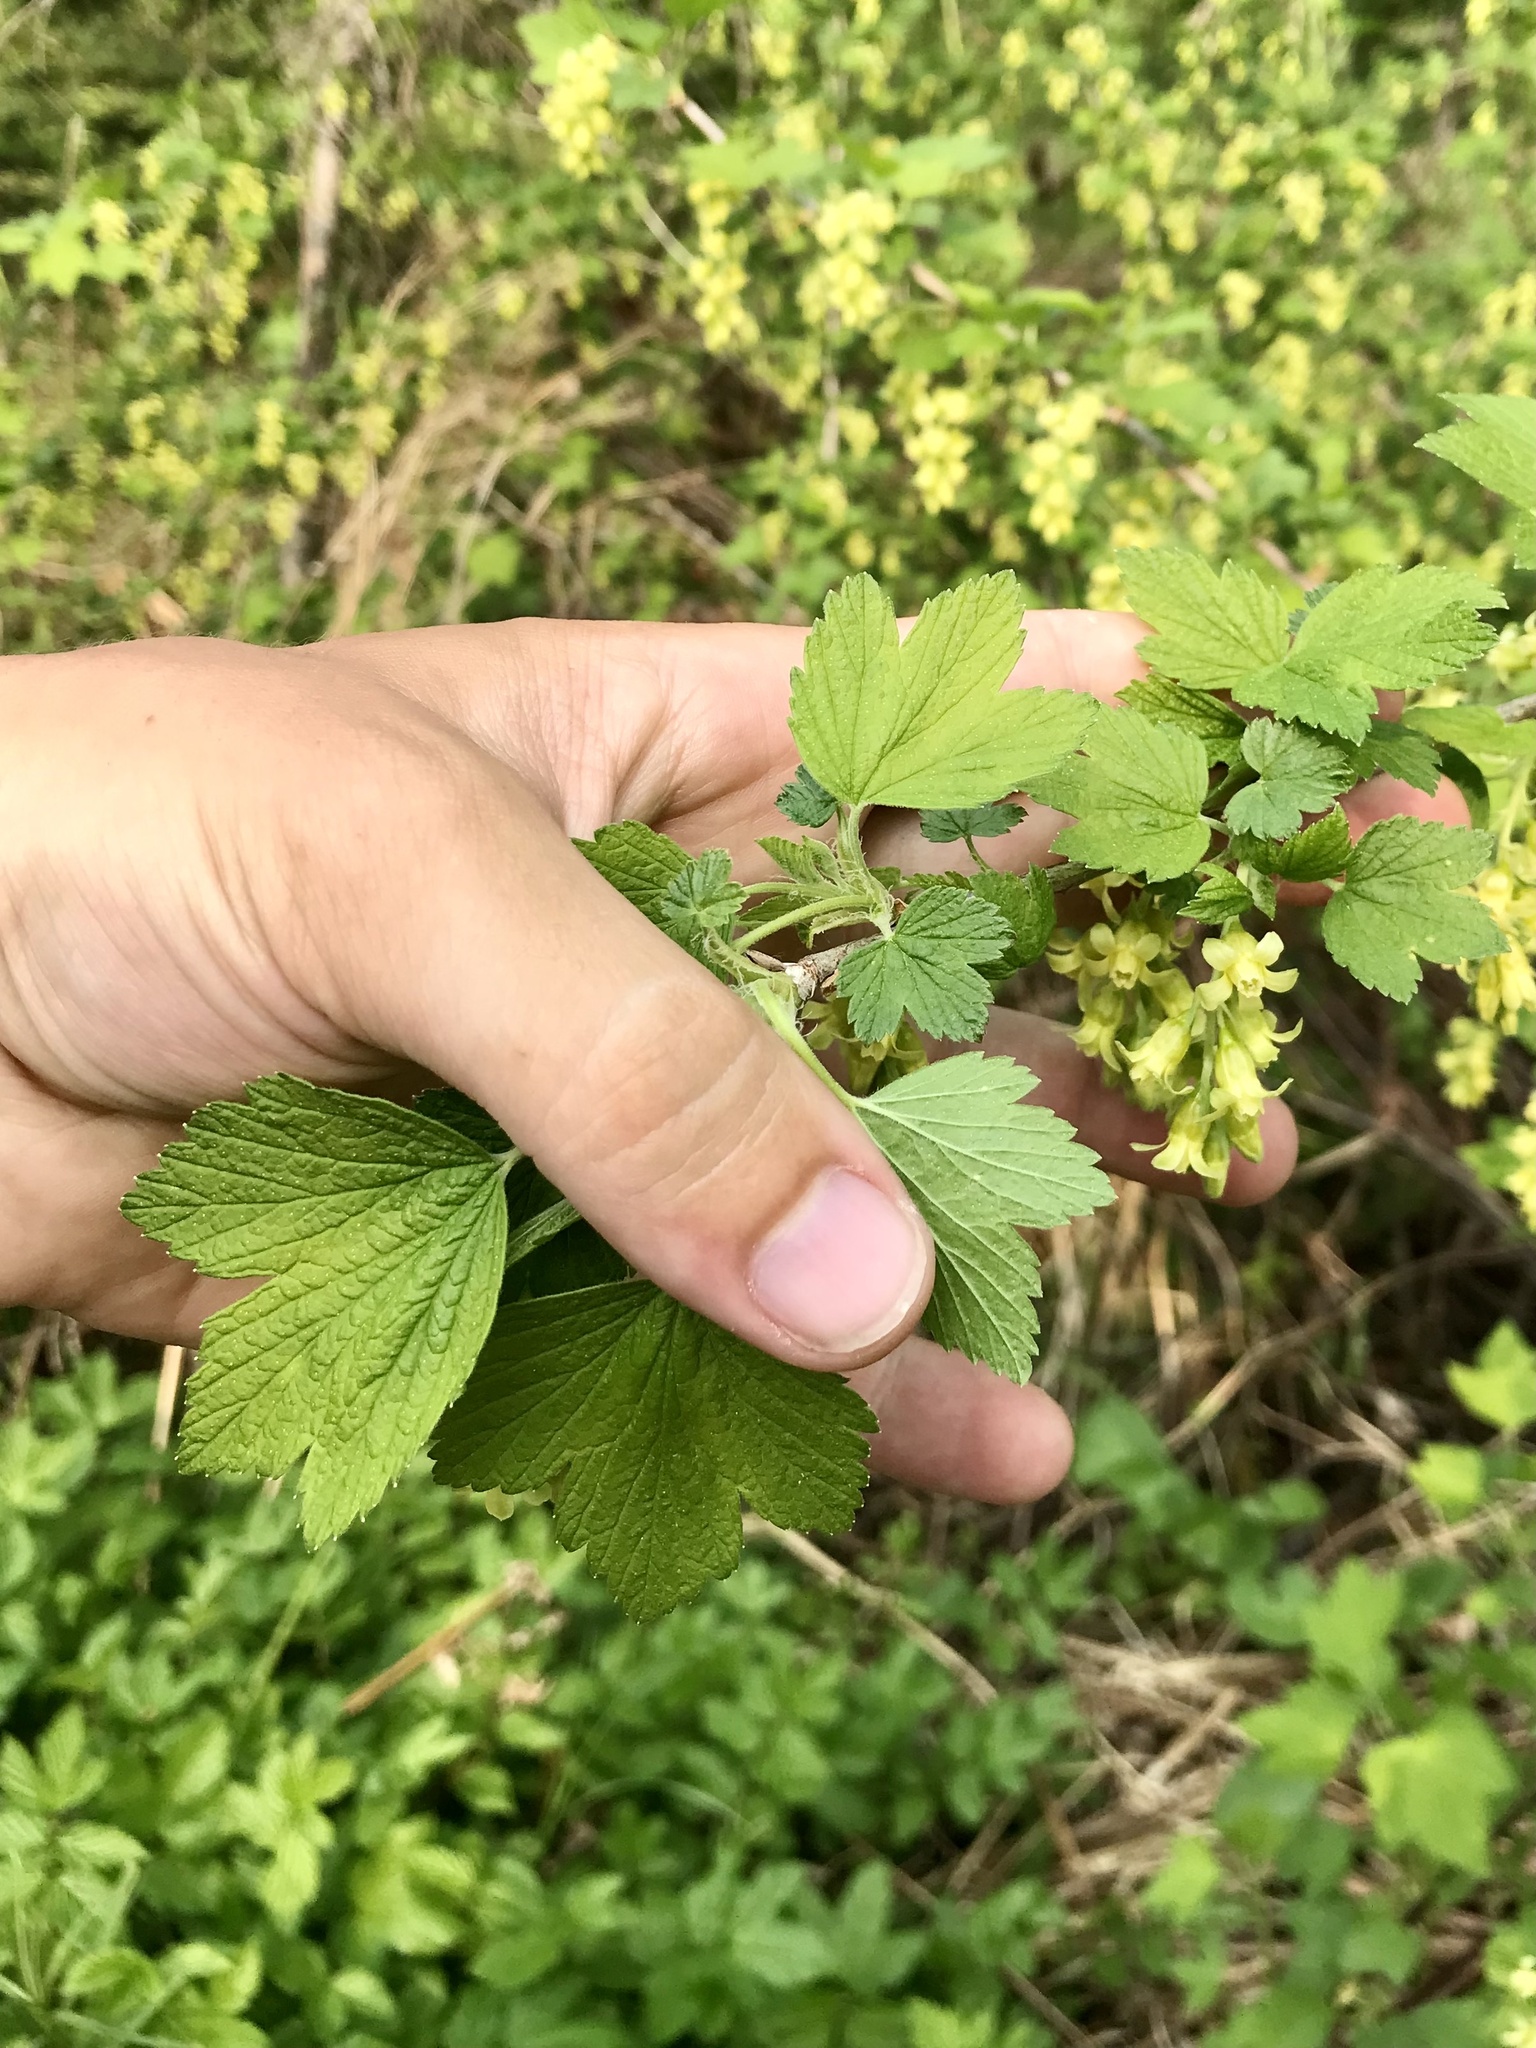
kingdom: Plantae
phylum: Tracheophyta
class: Magnoliopsida
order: Saxifragales
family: Grossulariaceae
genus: Ribes
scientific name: Ribes americanum
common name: American black currant
